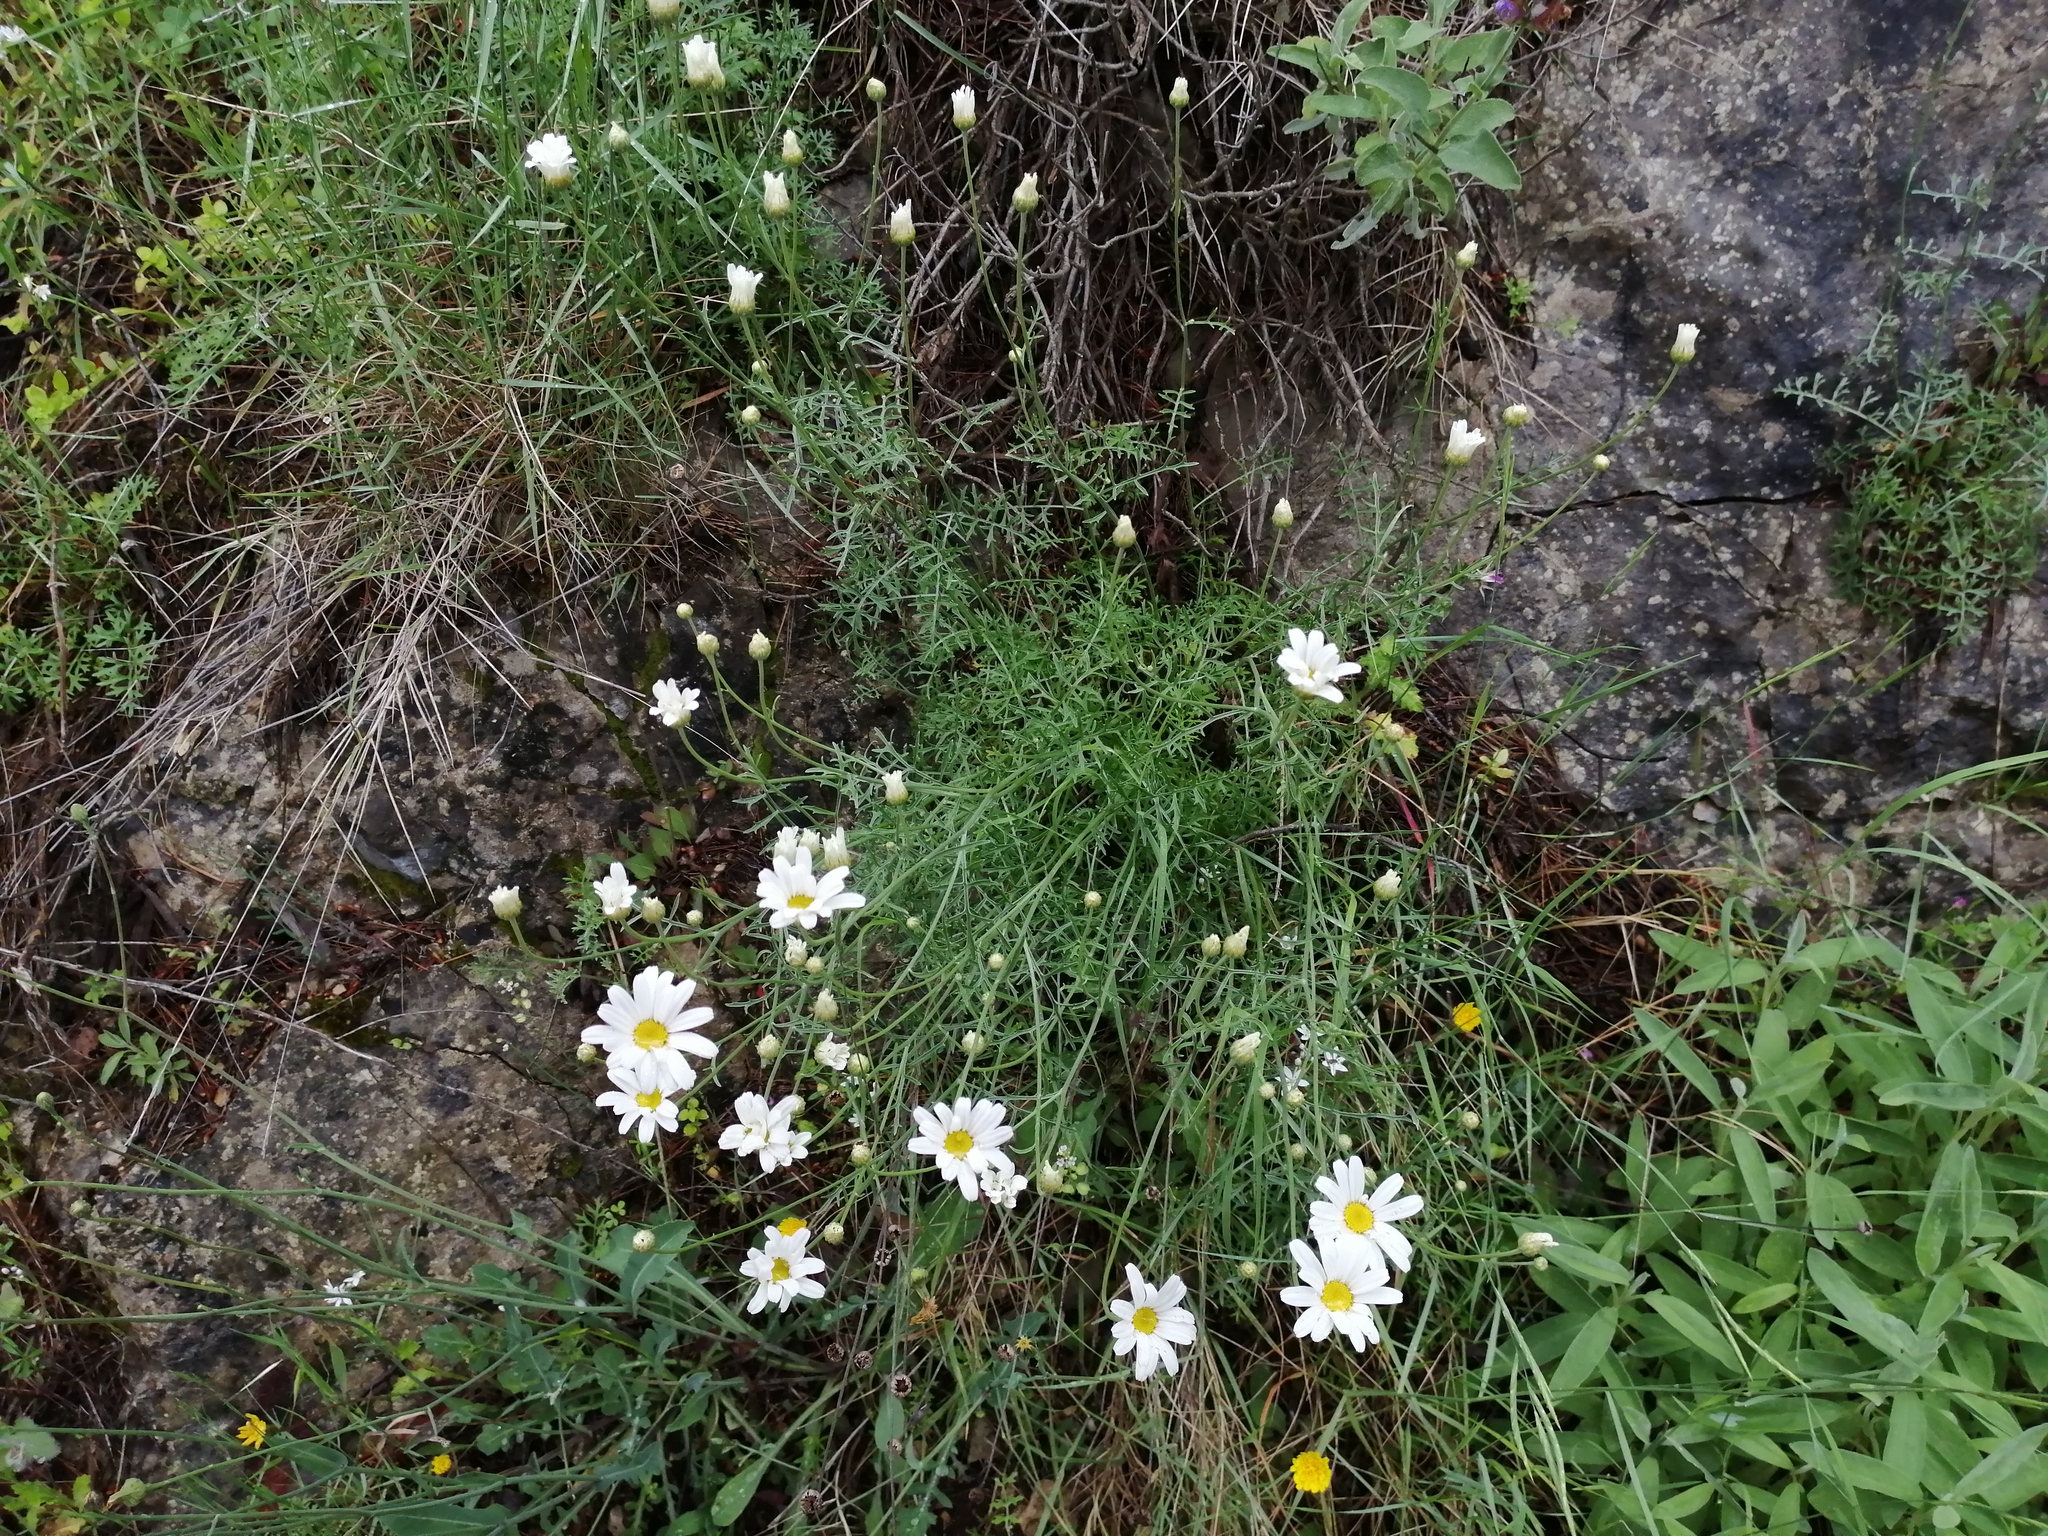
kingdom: Plantae
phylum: Tracheophyta
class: Magnoliopsida
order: Asterales
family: Asteraceae
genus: Tanacetum
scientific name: Tanacetum cinerariifolium
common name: Dalmatian pyrethrum
